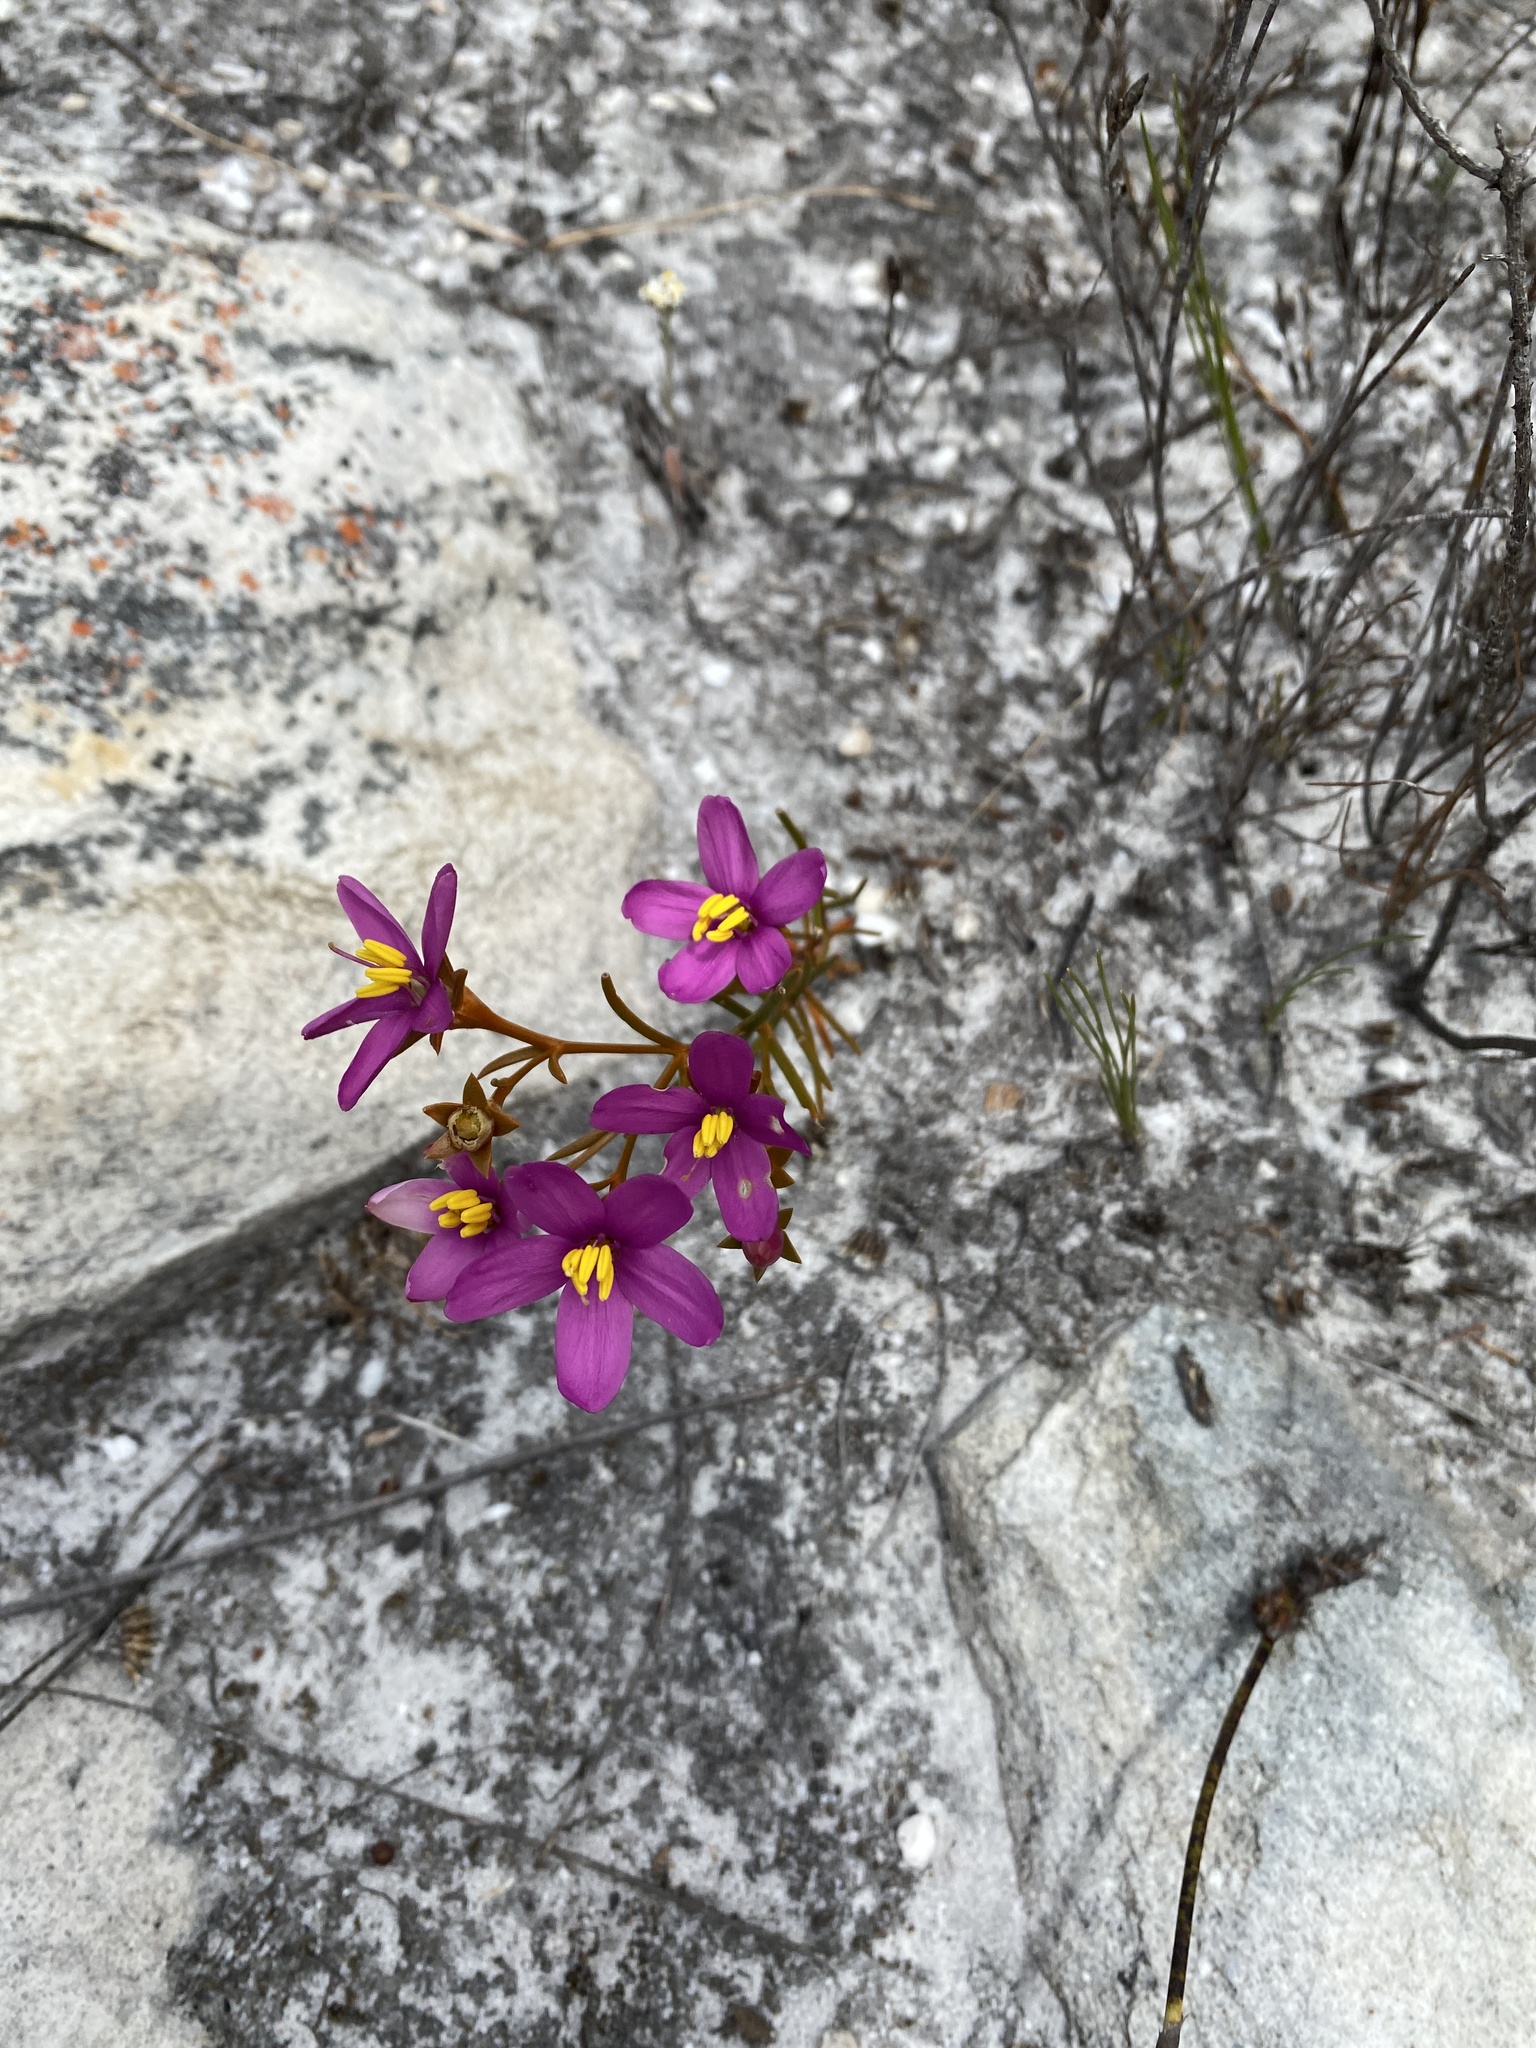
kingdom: Plantae
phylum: Tracheophyta
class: Magnoliopsida
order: Gentianales
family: Gentianaceae
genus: Chironia
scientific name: Chironia linoides
